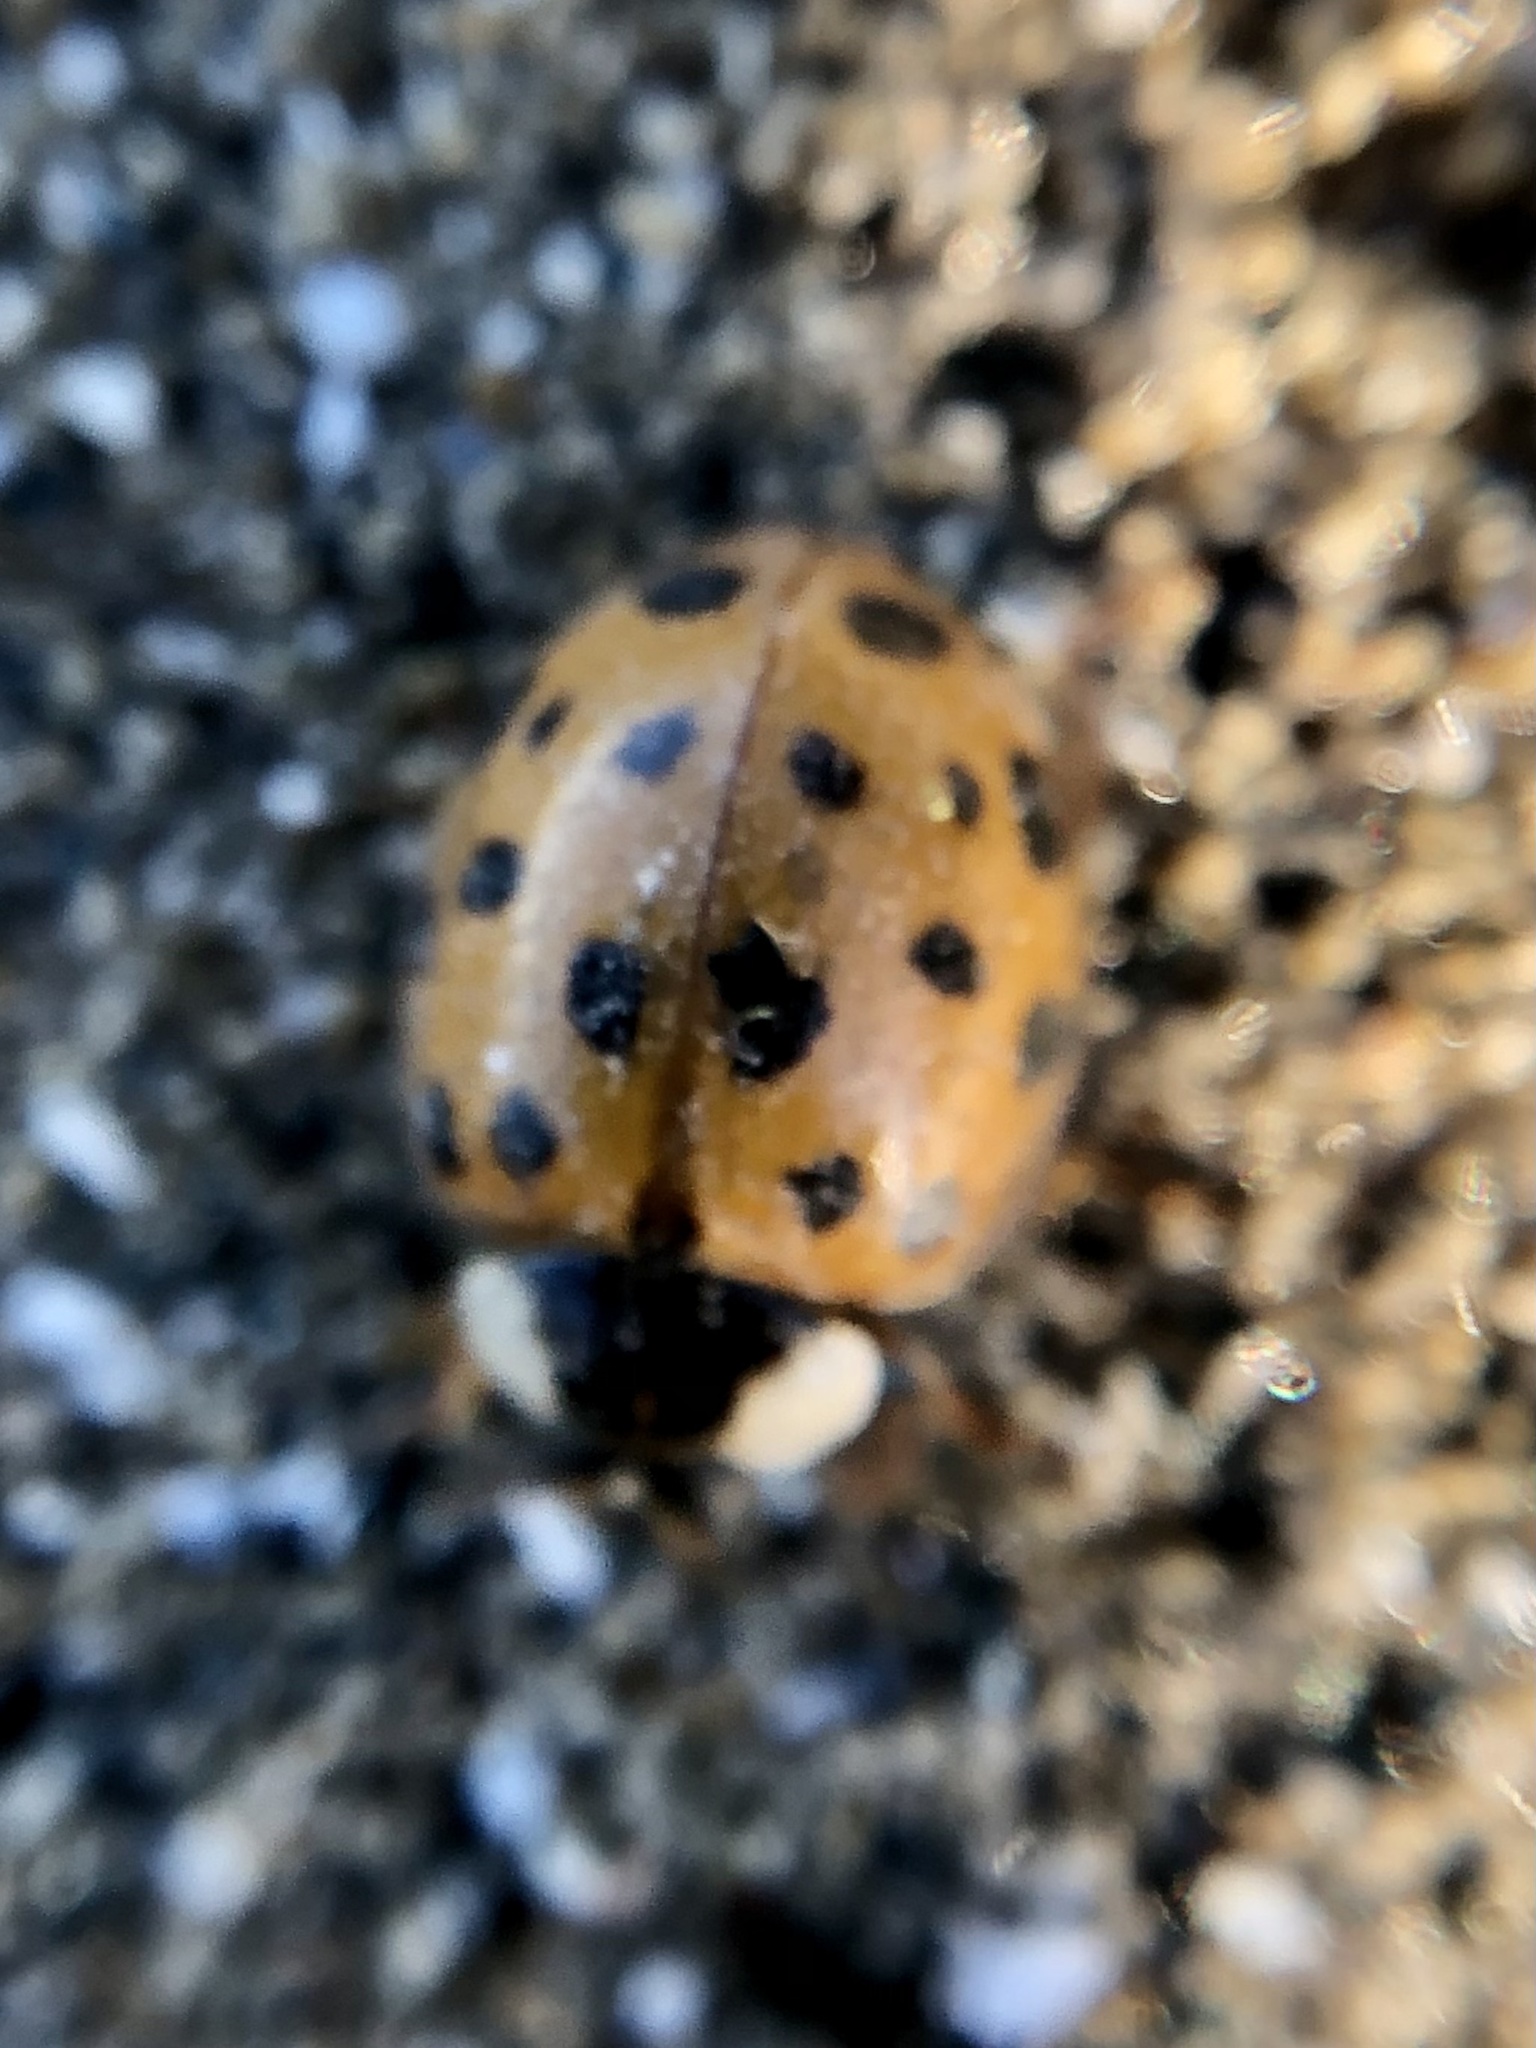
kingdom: Animalia
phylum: Arthropoda
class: Insecta
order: Coleoptera
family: Coccinellidae
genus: Harmonia
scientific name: Harmonia axyridis
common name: Harlequin ladybird
